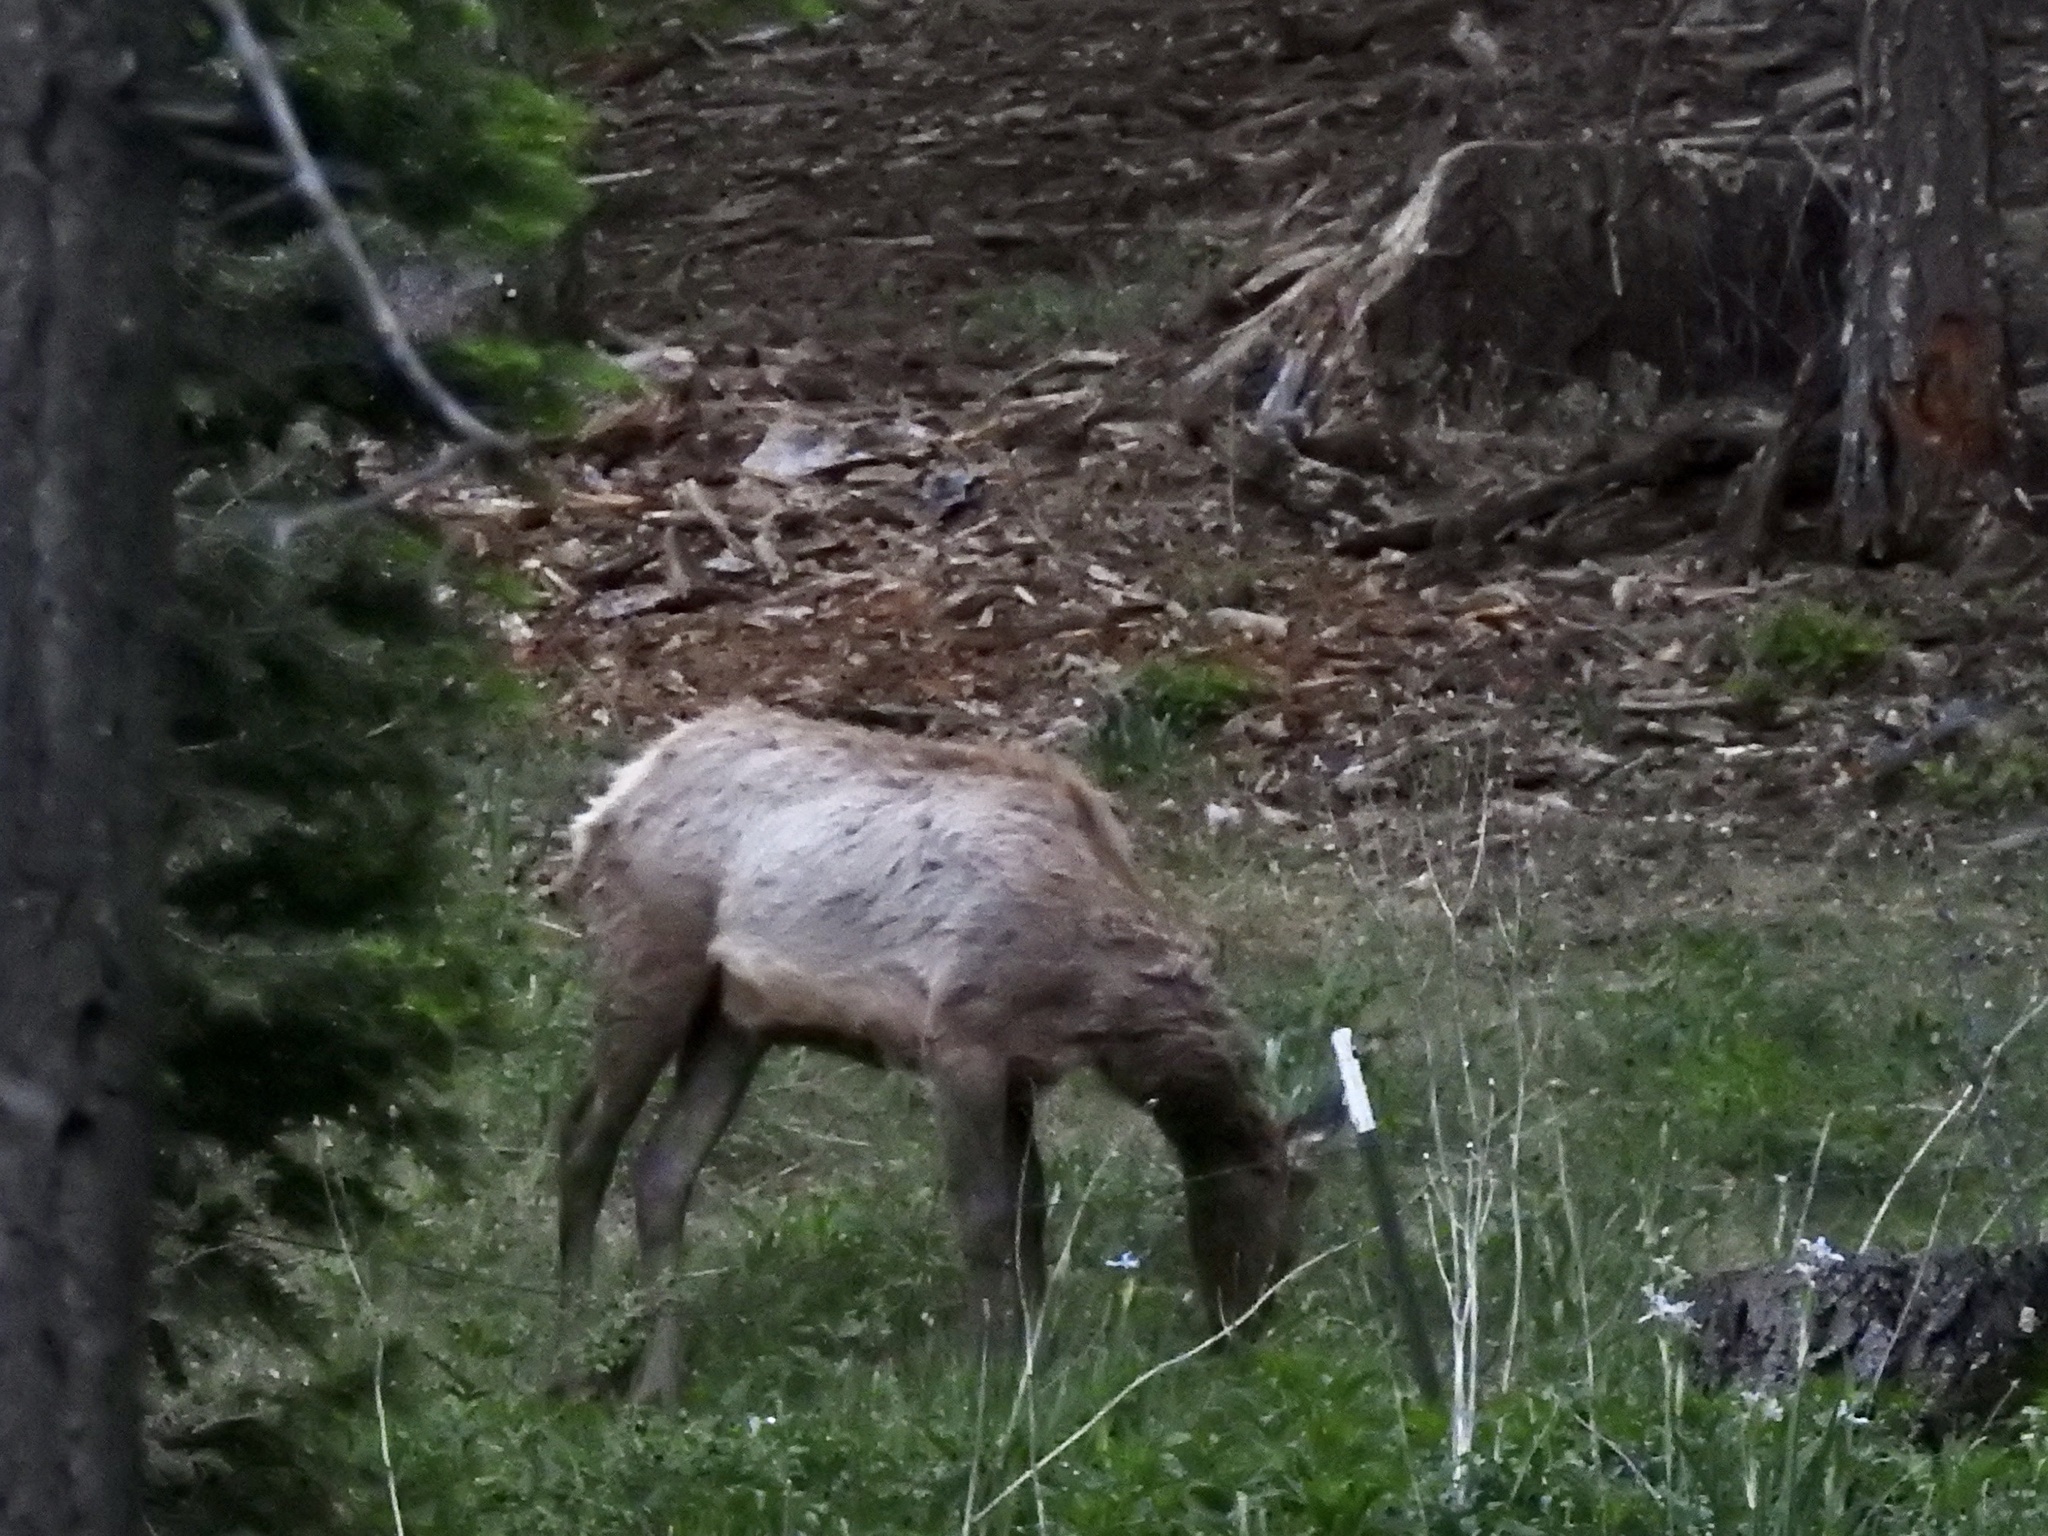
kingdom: Animalia
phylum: Chordata
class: Mammalia
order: Artiodactyla
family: Cervidae
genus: Cervus
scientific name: Cervus elaphus
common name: Red deer
